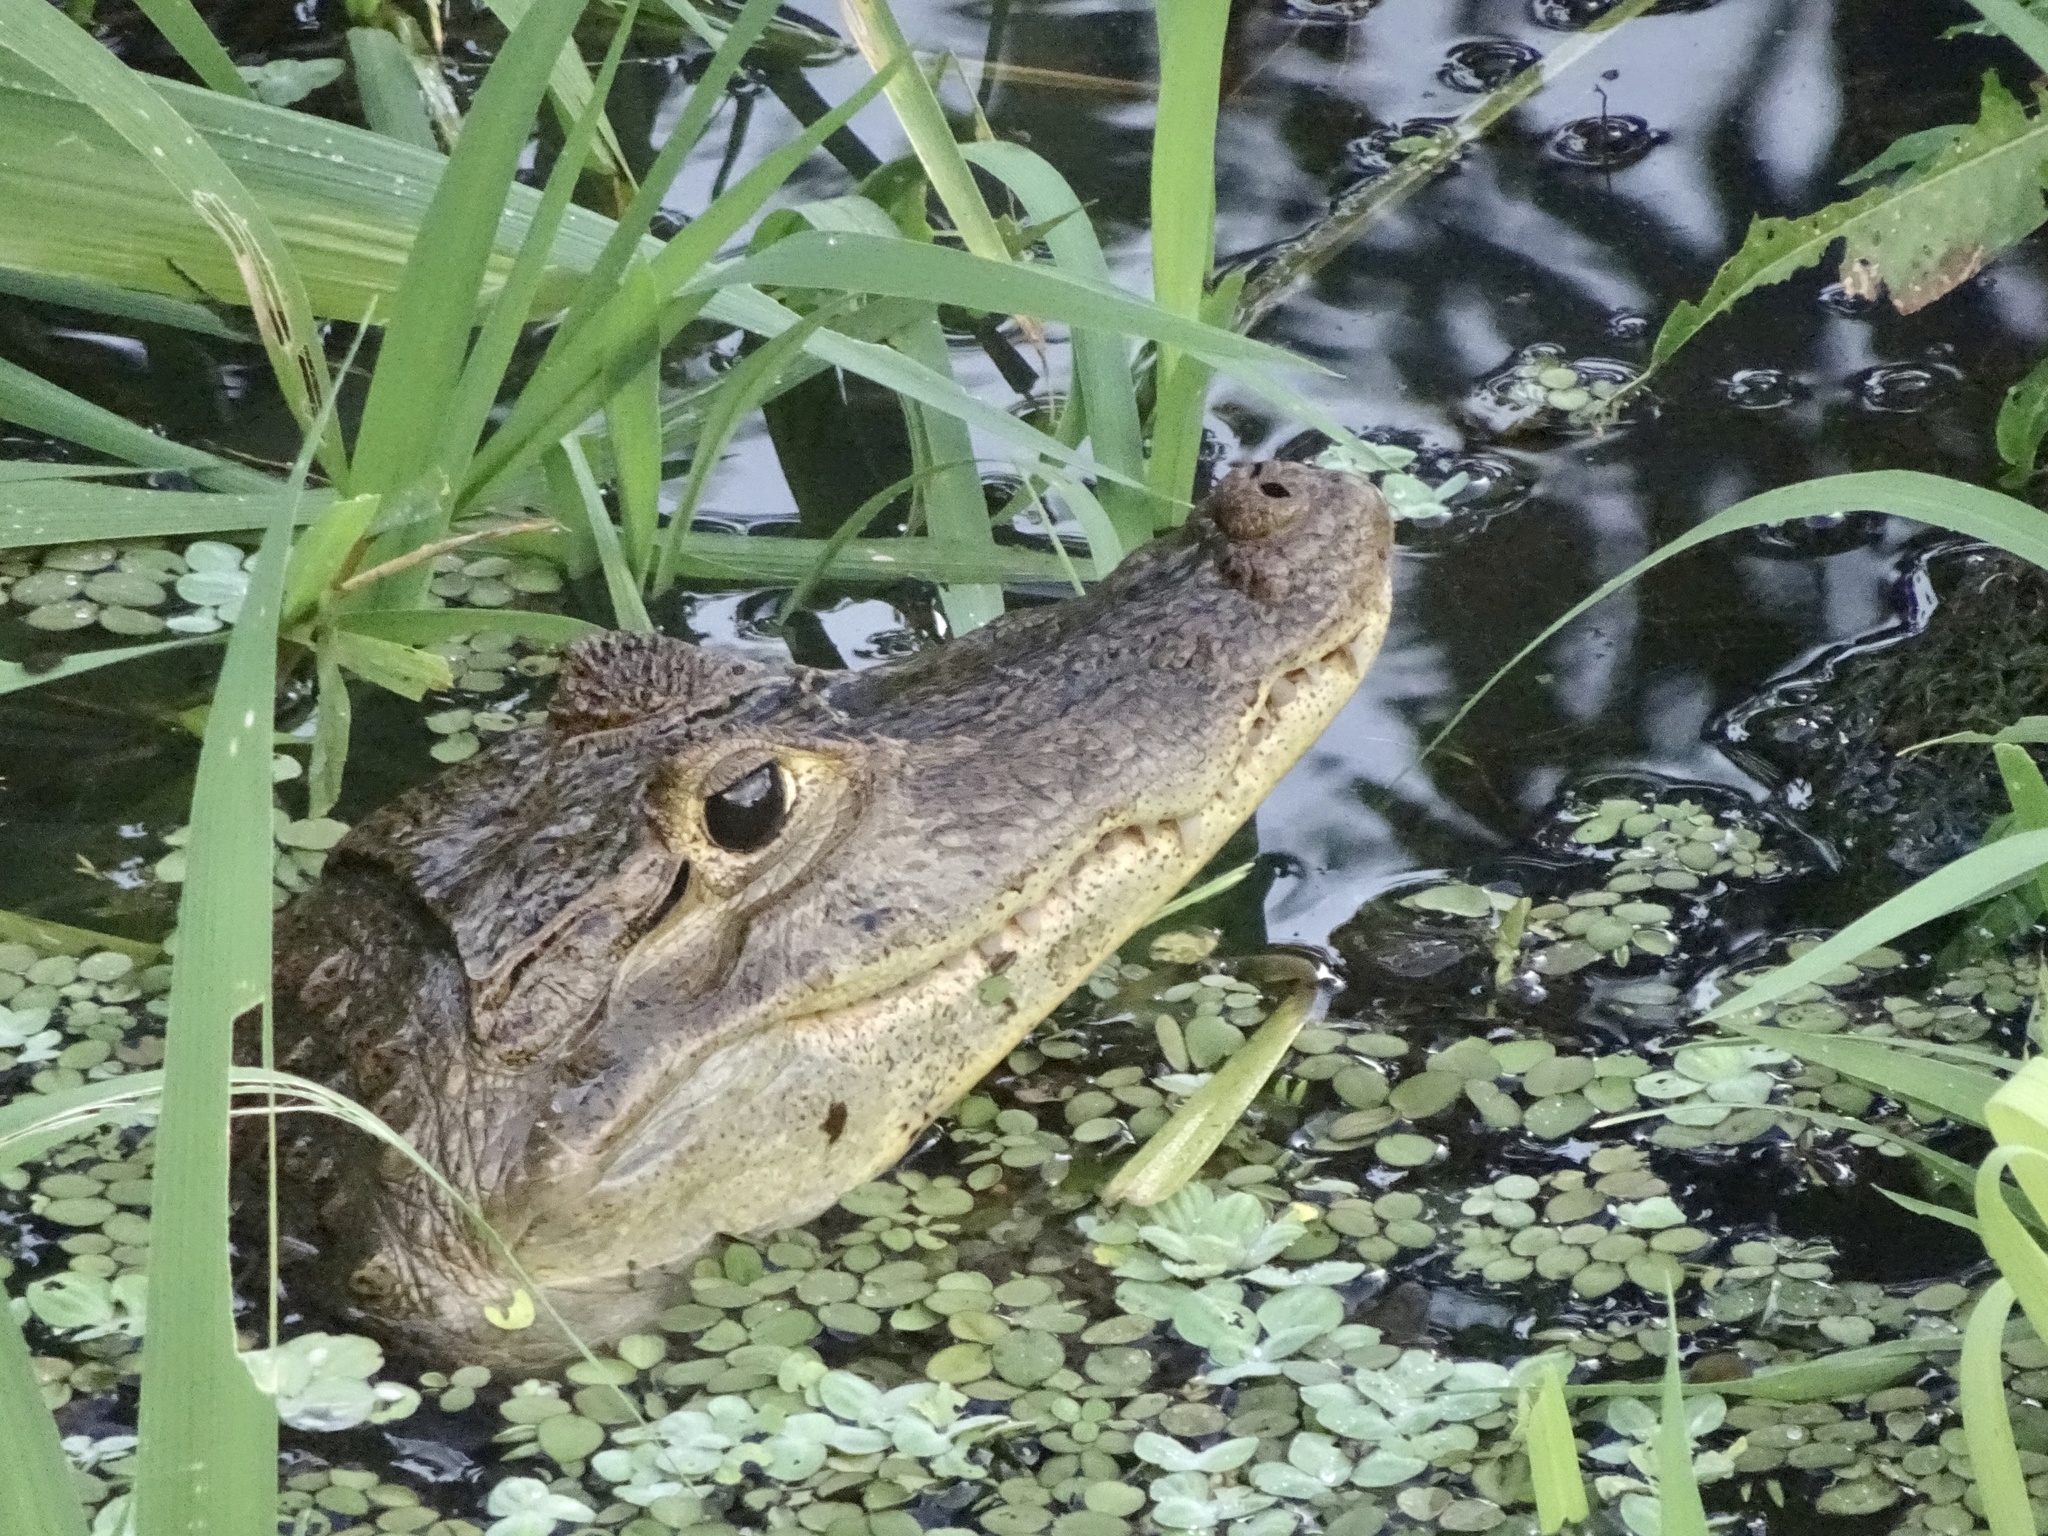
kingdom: Animalia
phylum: Chordata
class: Crocodylia
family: Alligatoridae
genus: Caiman
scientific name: Caiman crocodilus
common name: Common caiman
